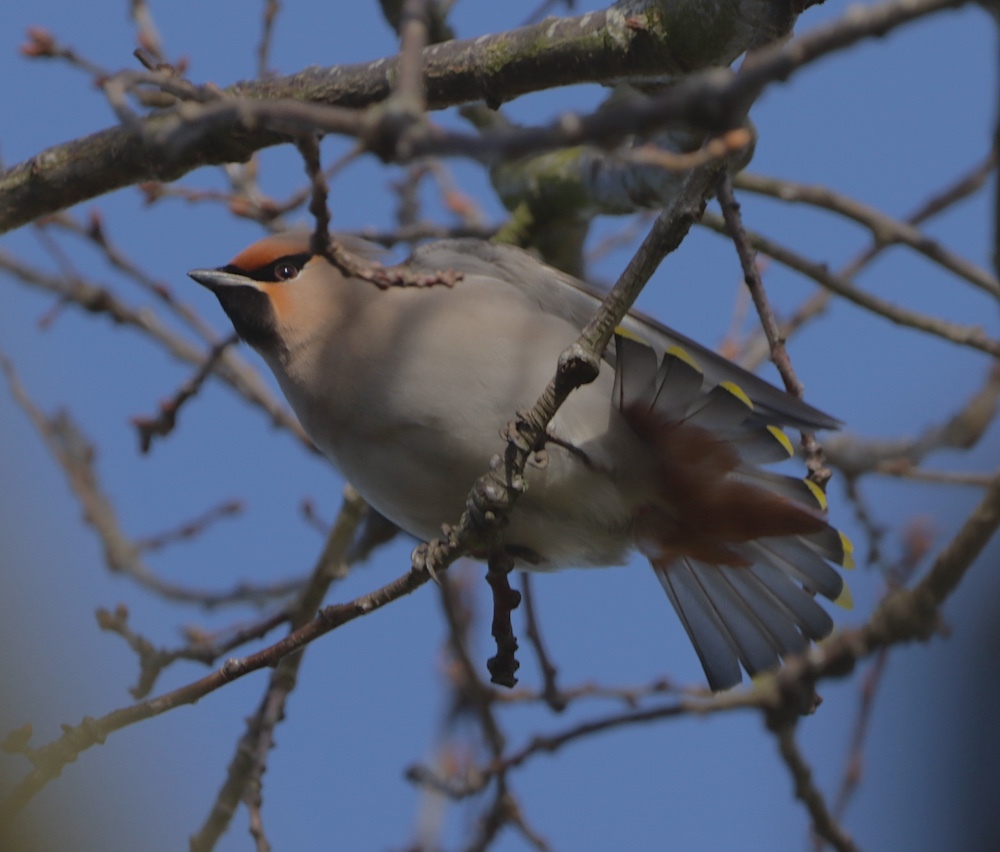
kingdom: Animalia
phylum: Chordata
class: Aves
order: Passeriformes
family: Bombycillidae
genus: Bombycilla
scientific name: Bombycilla garrulus
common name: Bohemian waxwing
